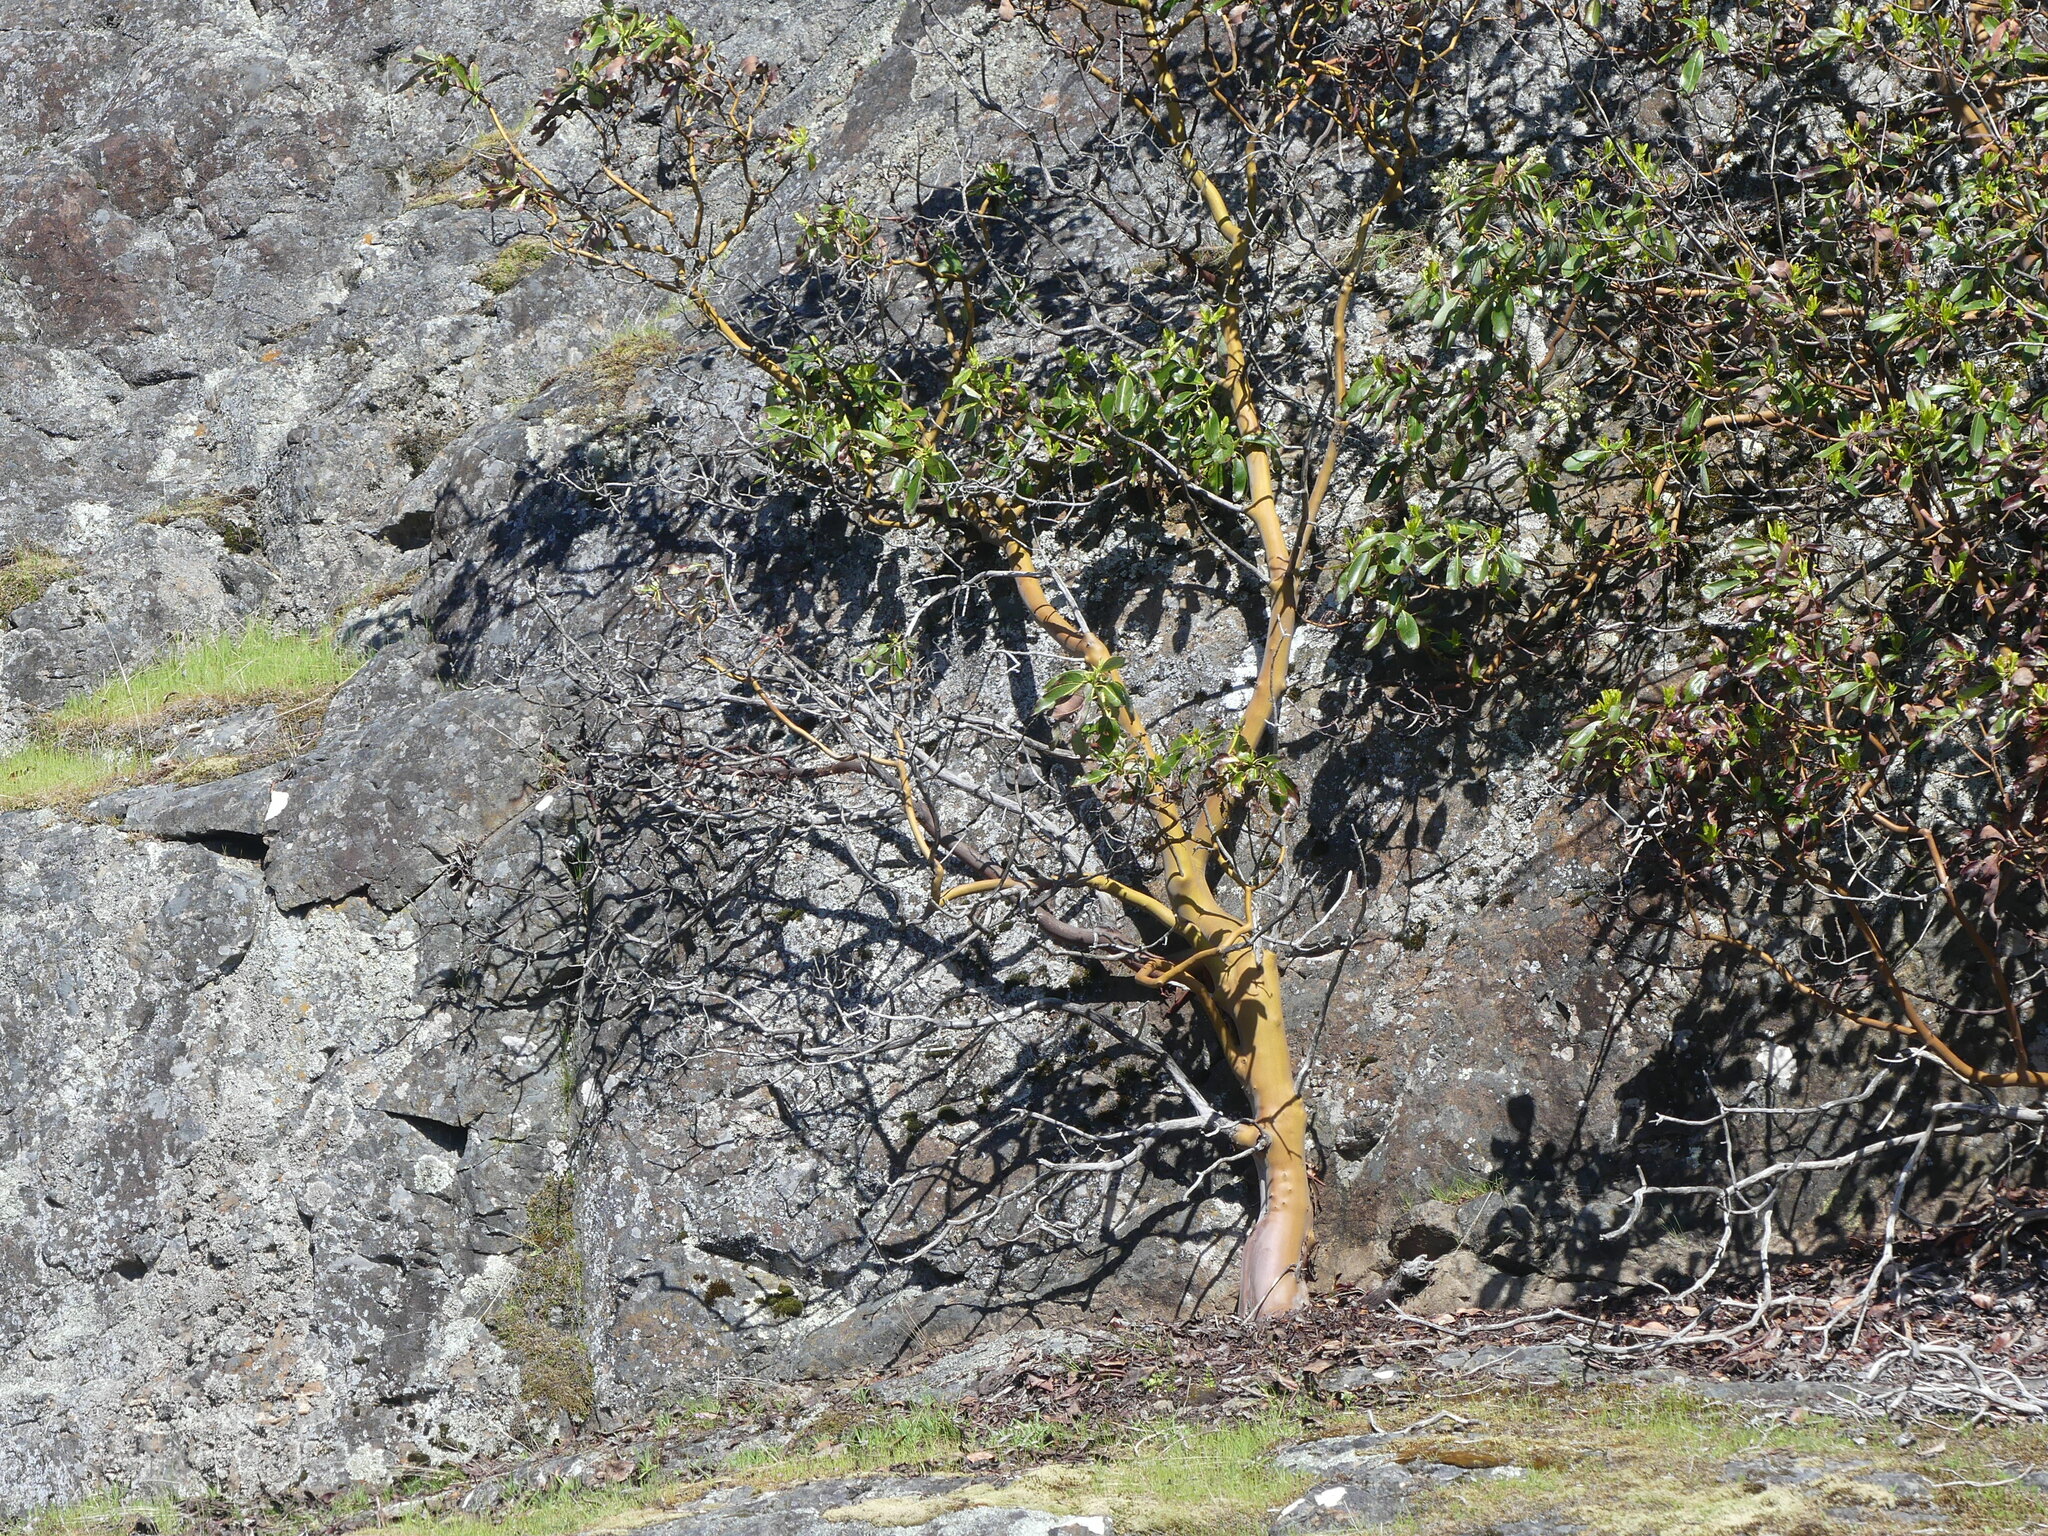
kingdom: Plantae
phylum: Tracheophyta
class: Magnoliopsida
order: Ericales
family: Ericaceae
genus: Arbutus
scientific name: Arbutus menziesii
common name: Pacific madrone
